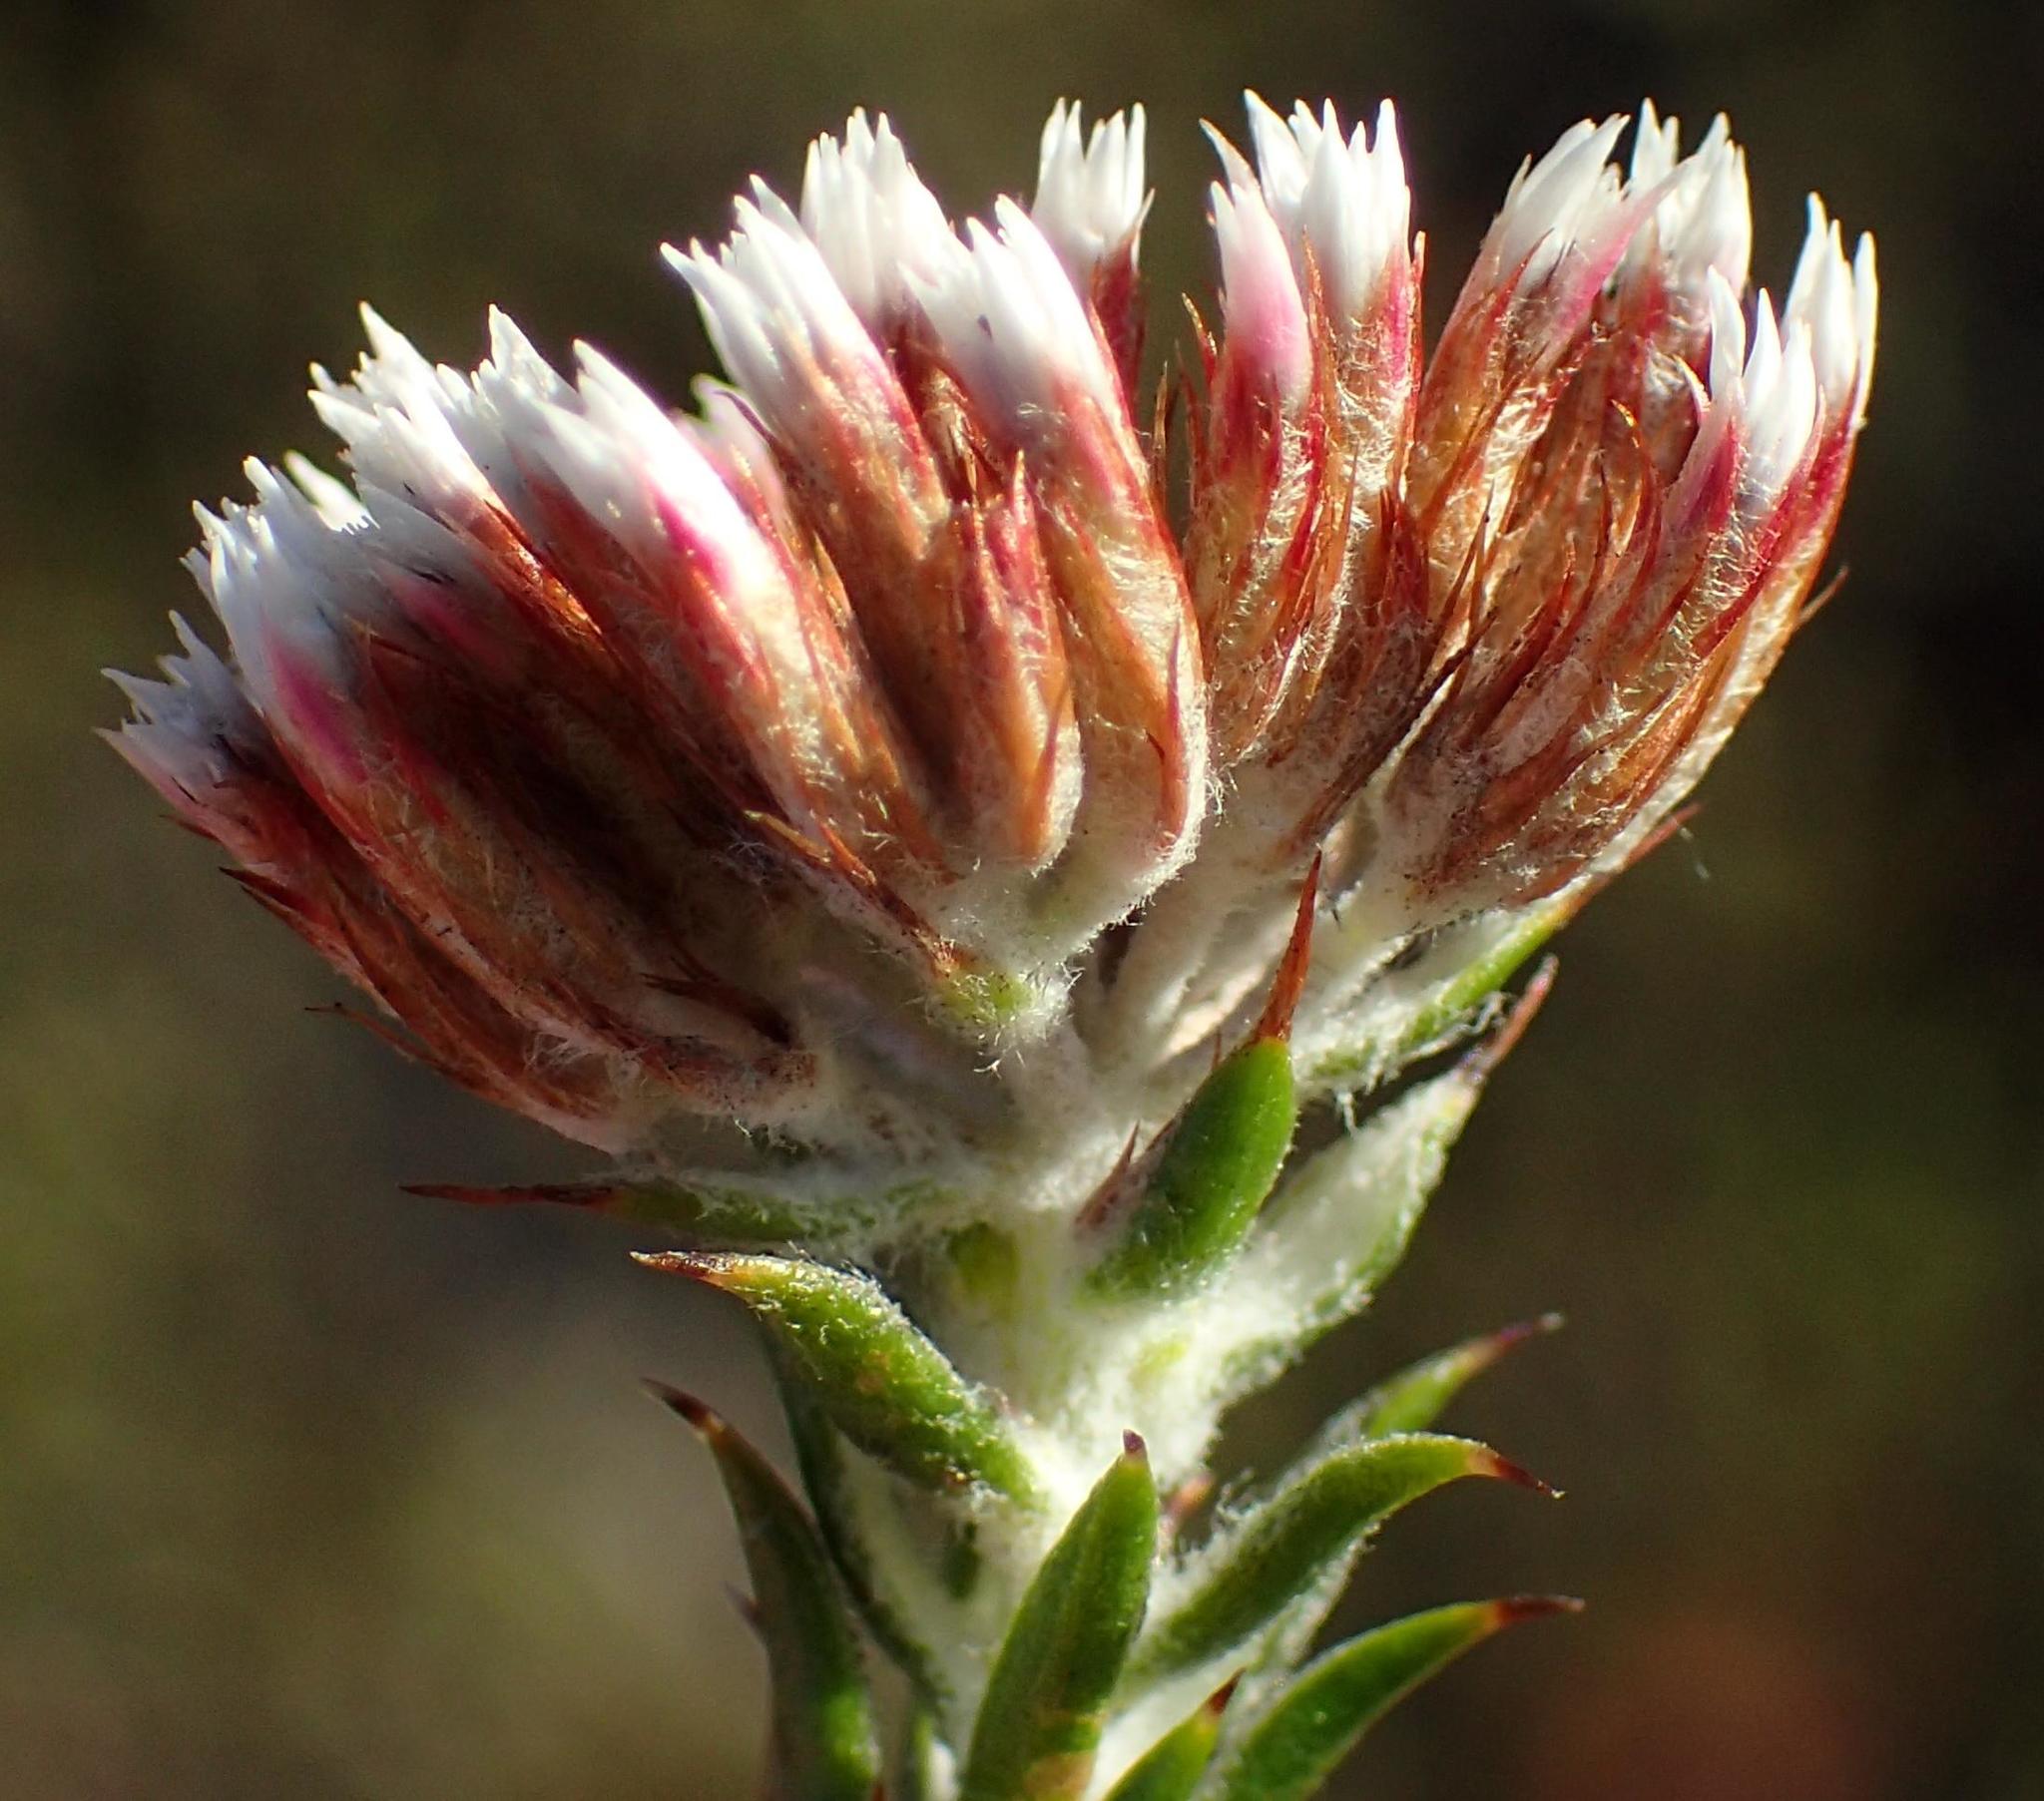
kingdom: Plantae
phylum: Tracheophyta
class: Magnoliopsida
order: Asterales
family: Asteraceae
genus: Metalasia
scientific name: Metalasia pungens
